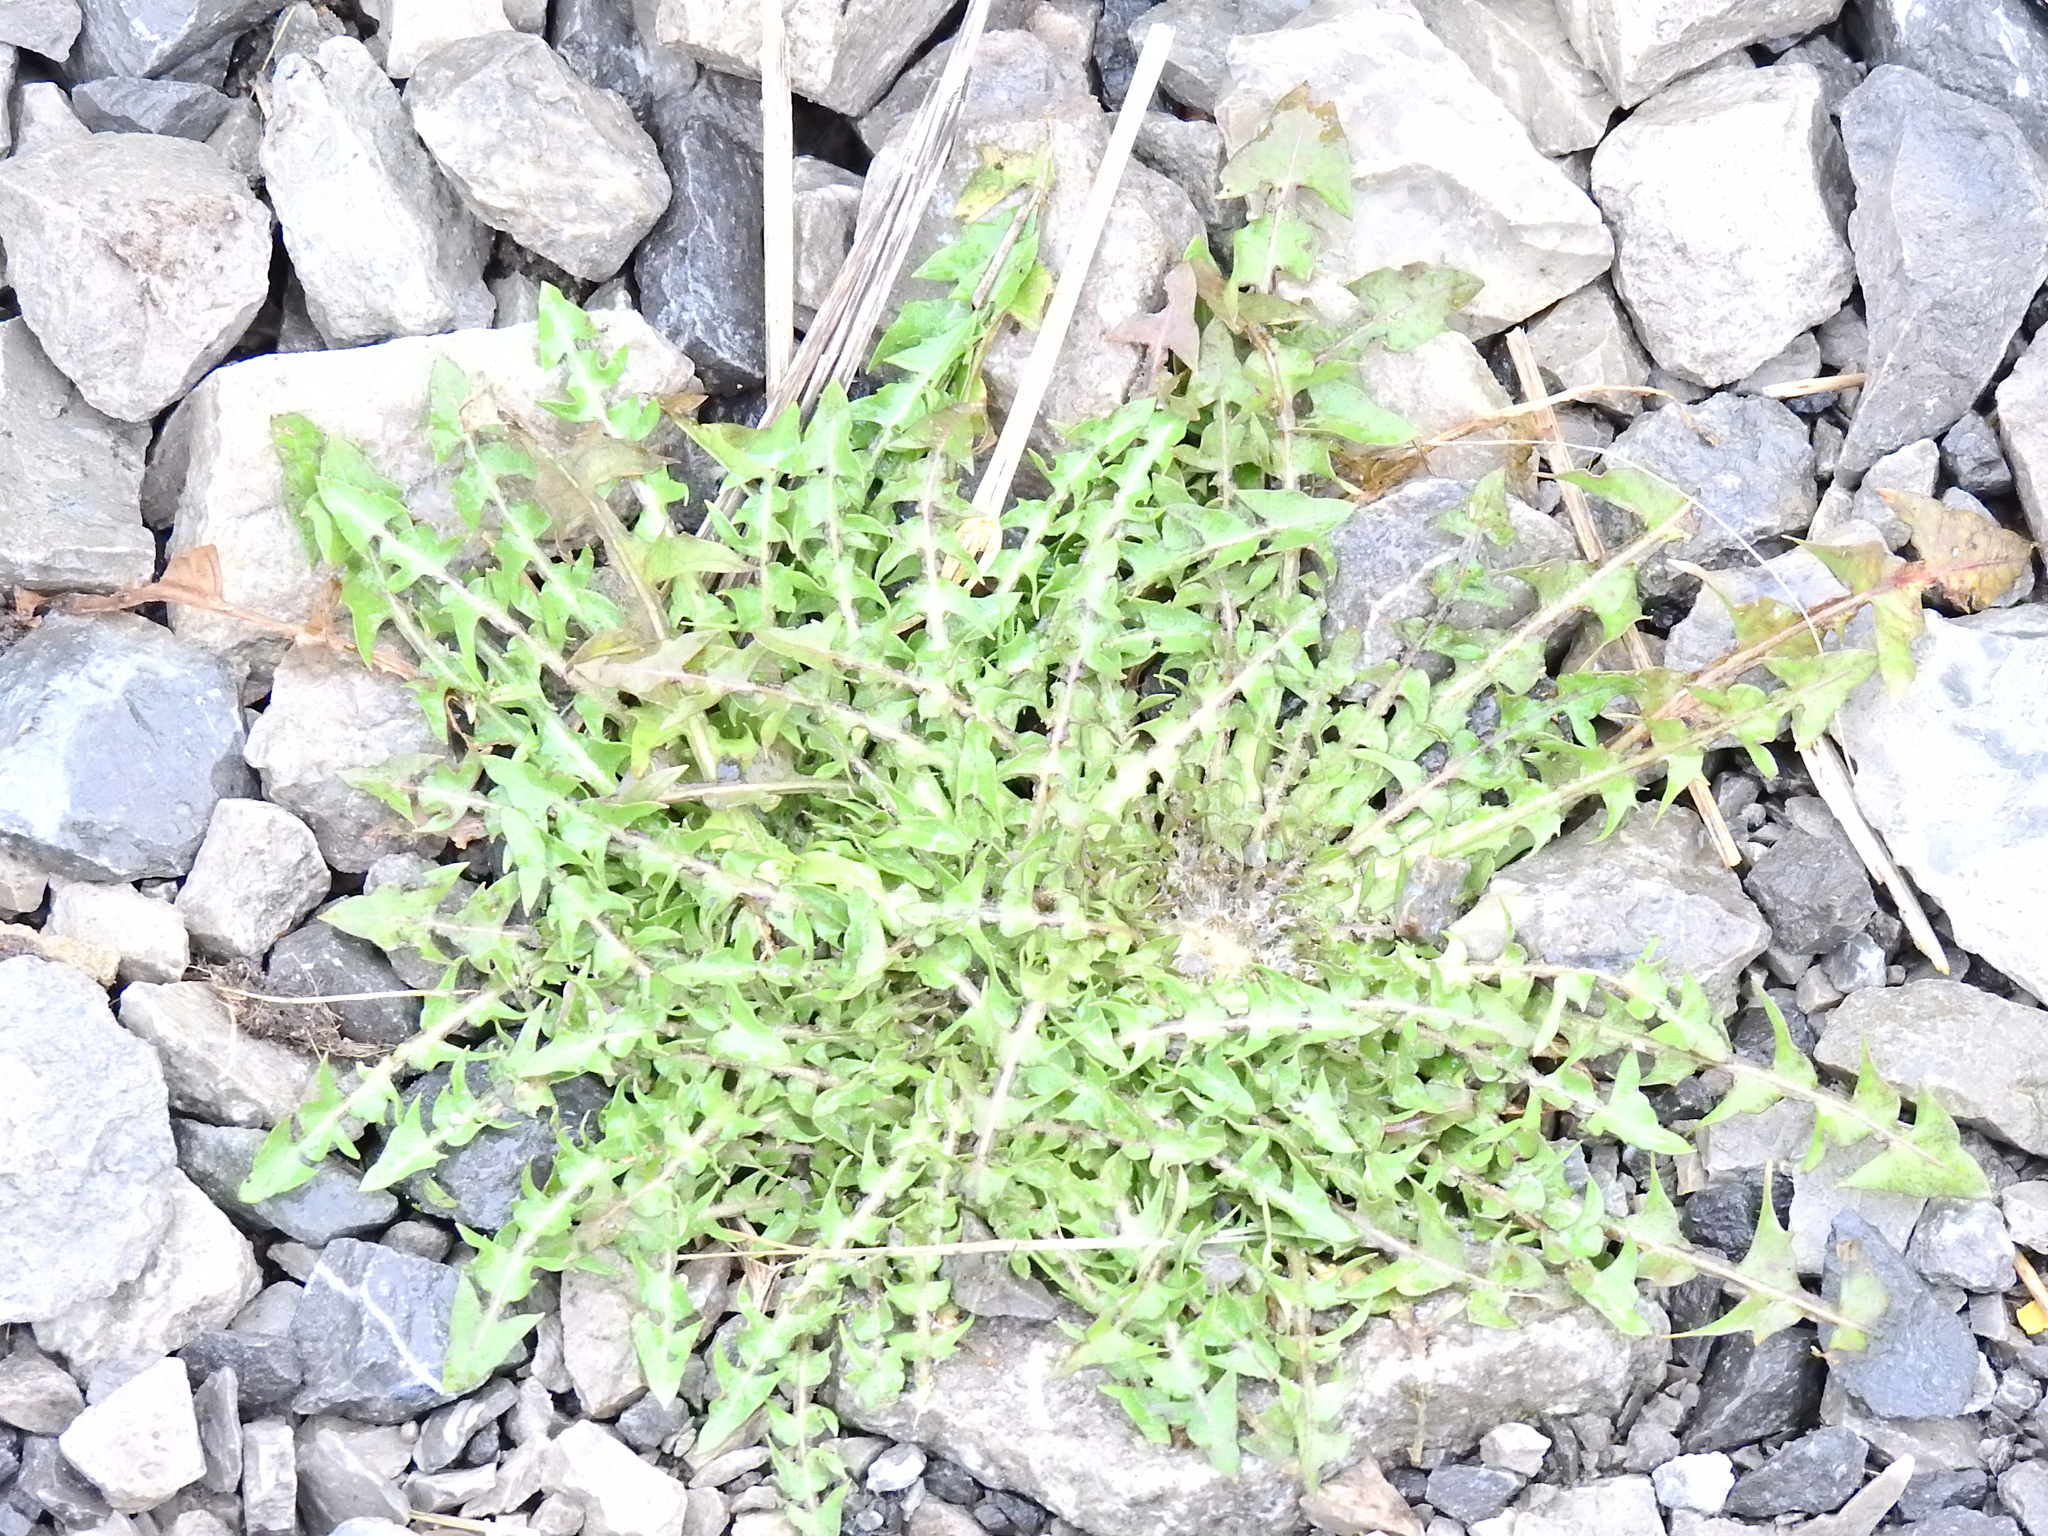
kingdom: Plantae
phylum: Tracheophyta
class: Magnoliopsida
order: Asterales
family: Asteraceae
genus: Taraxacum
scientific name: Taraxacum officinale
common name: Common dandelion
